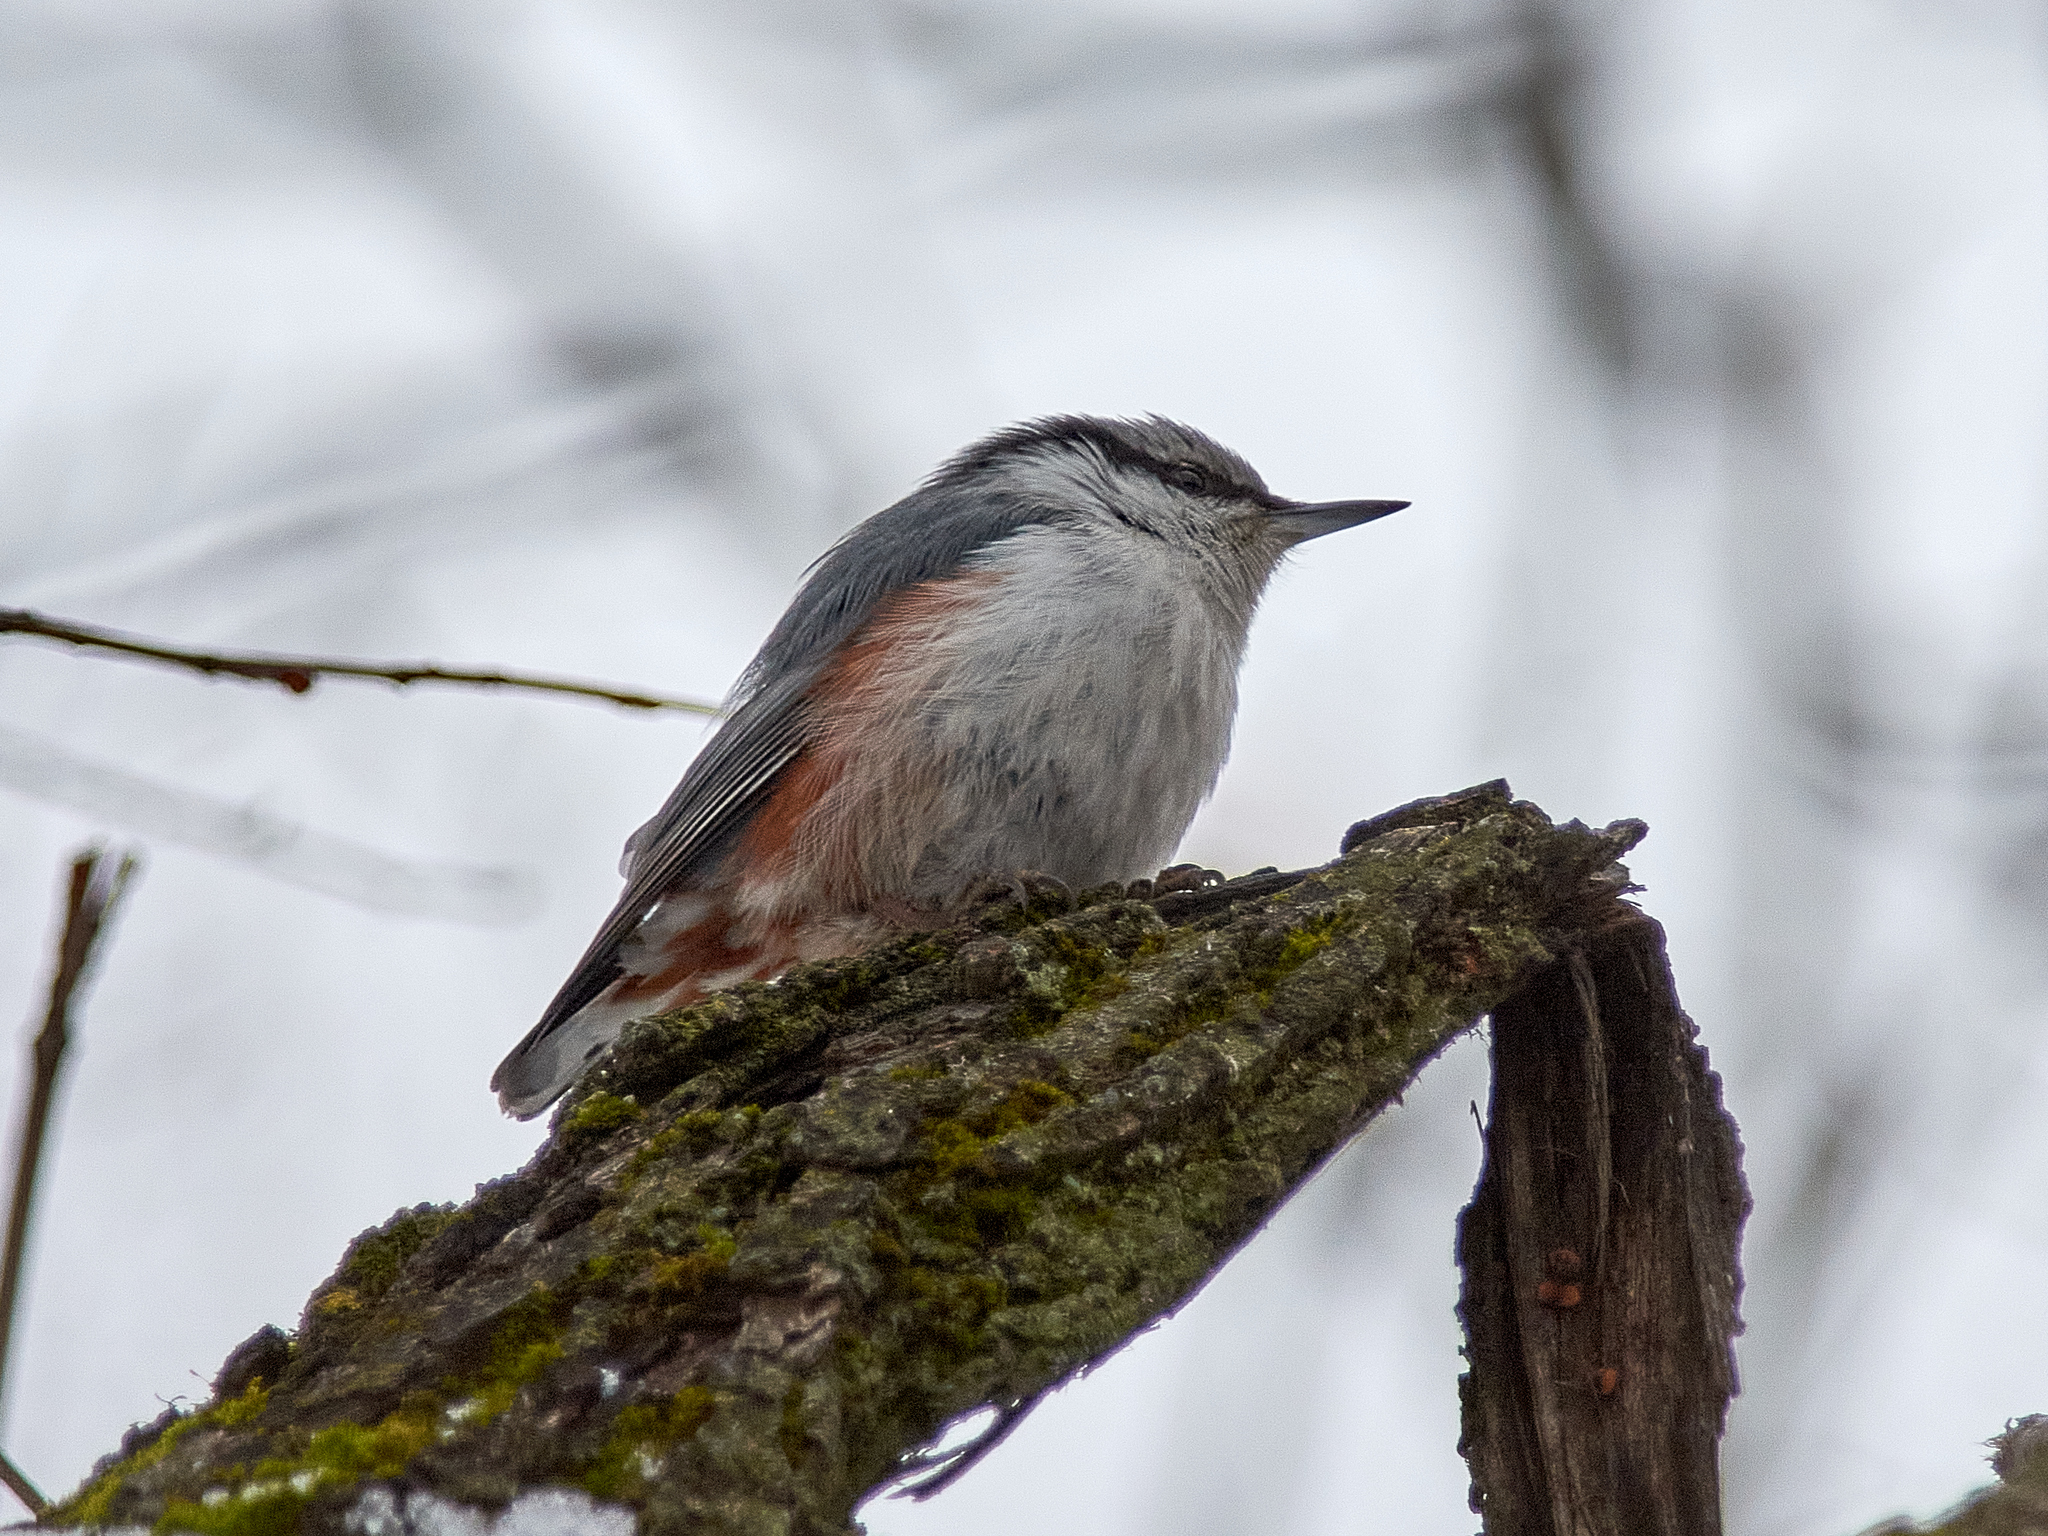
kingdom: Animalia
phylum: Chordata
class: Aves
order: Passeriformes
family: Sittidae
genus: Sitta
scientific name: Sitta europaea
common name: Eurasian nuthatch
